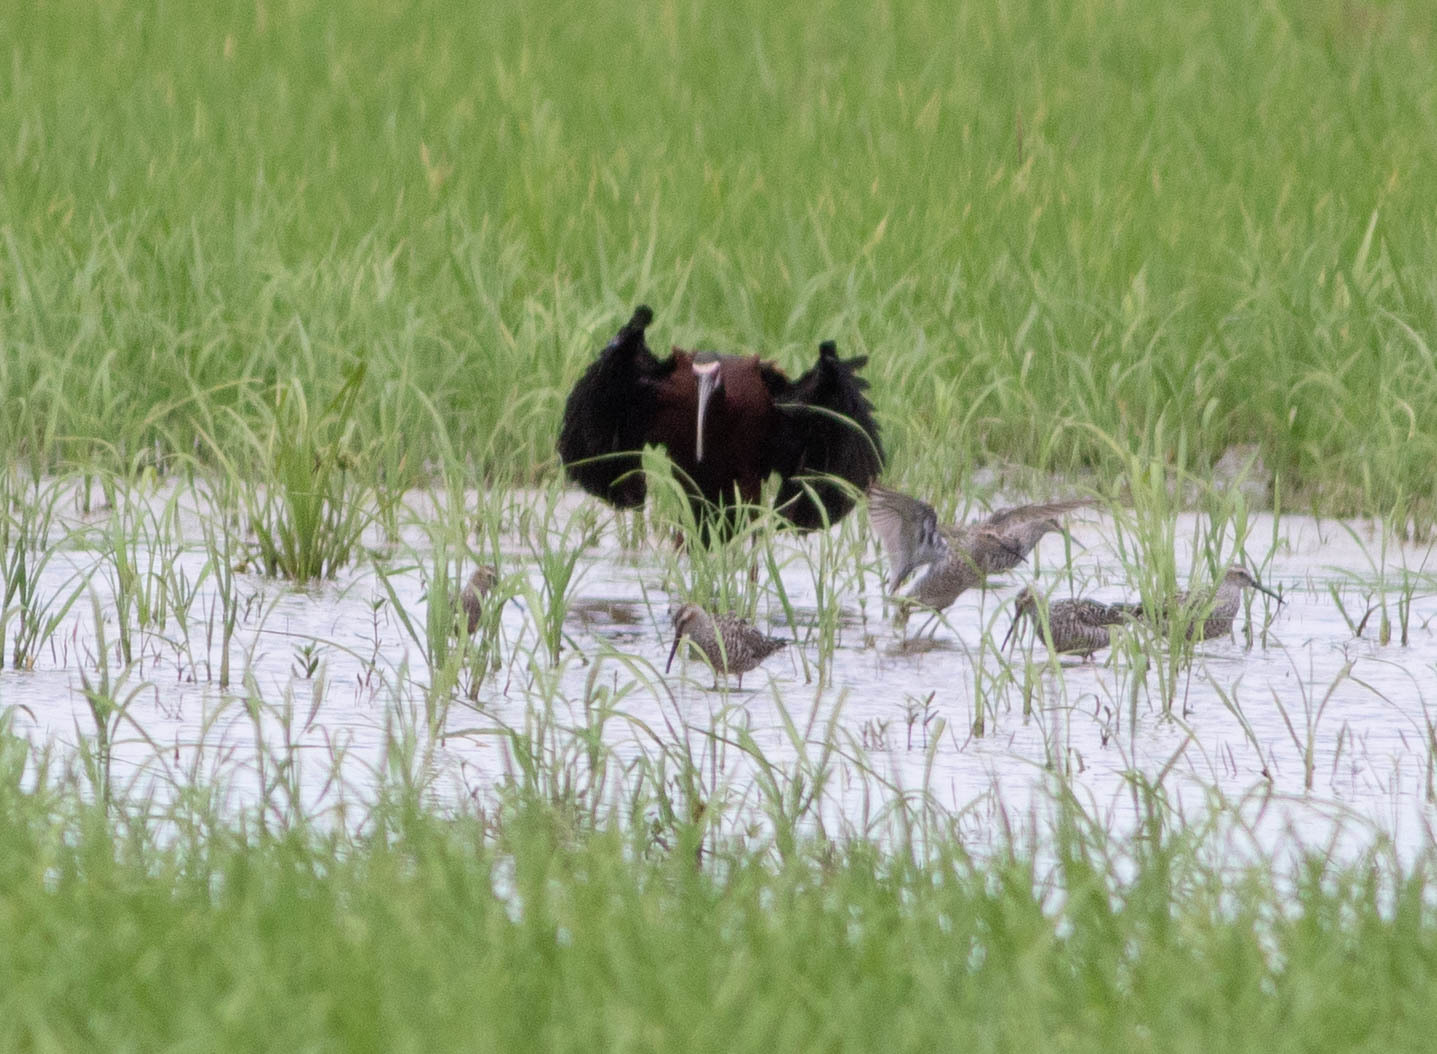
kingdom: Animalia
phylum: Chordata
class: Aves
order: Pelecaniformes
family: Threskiornithidae
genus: Plegadis
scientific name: Plegadis chihi
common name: White-faced ibis
